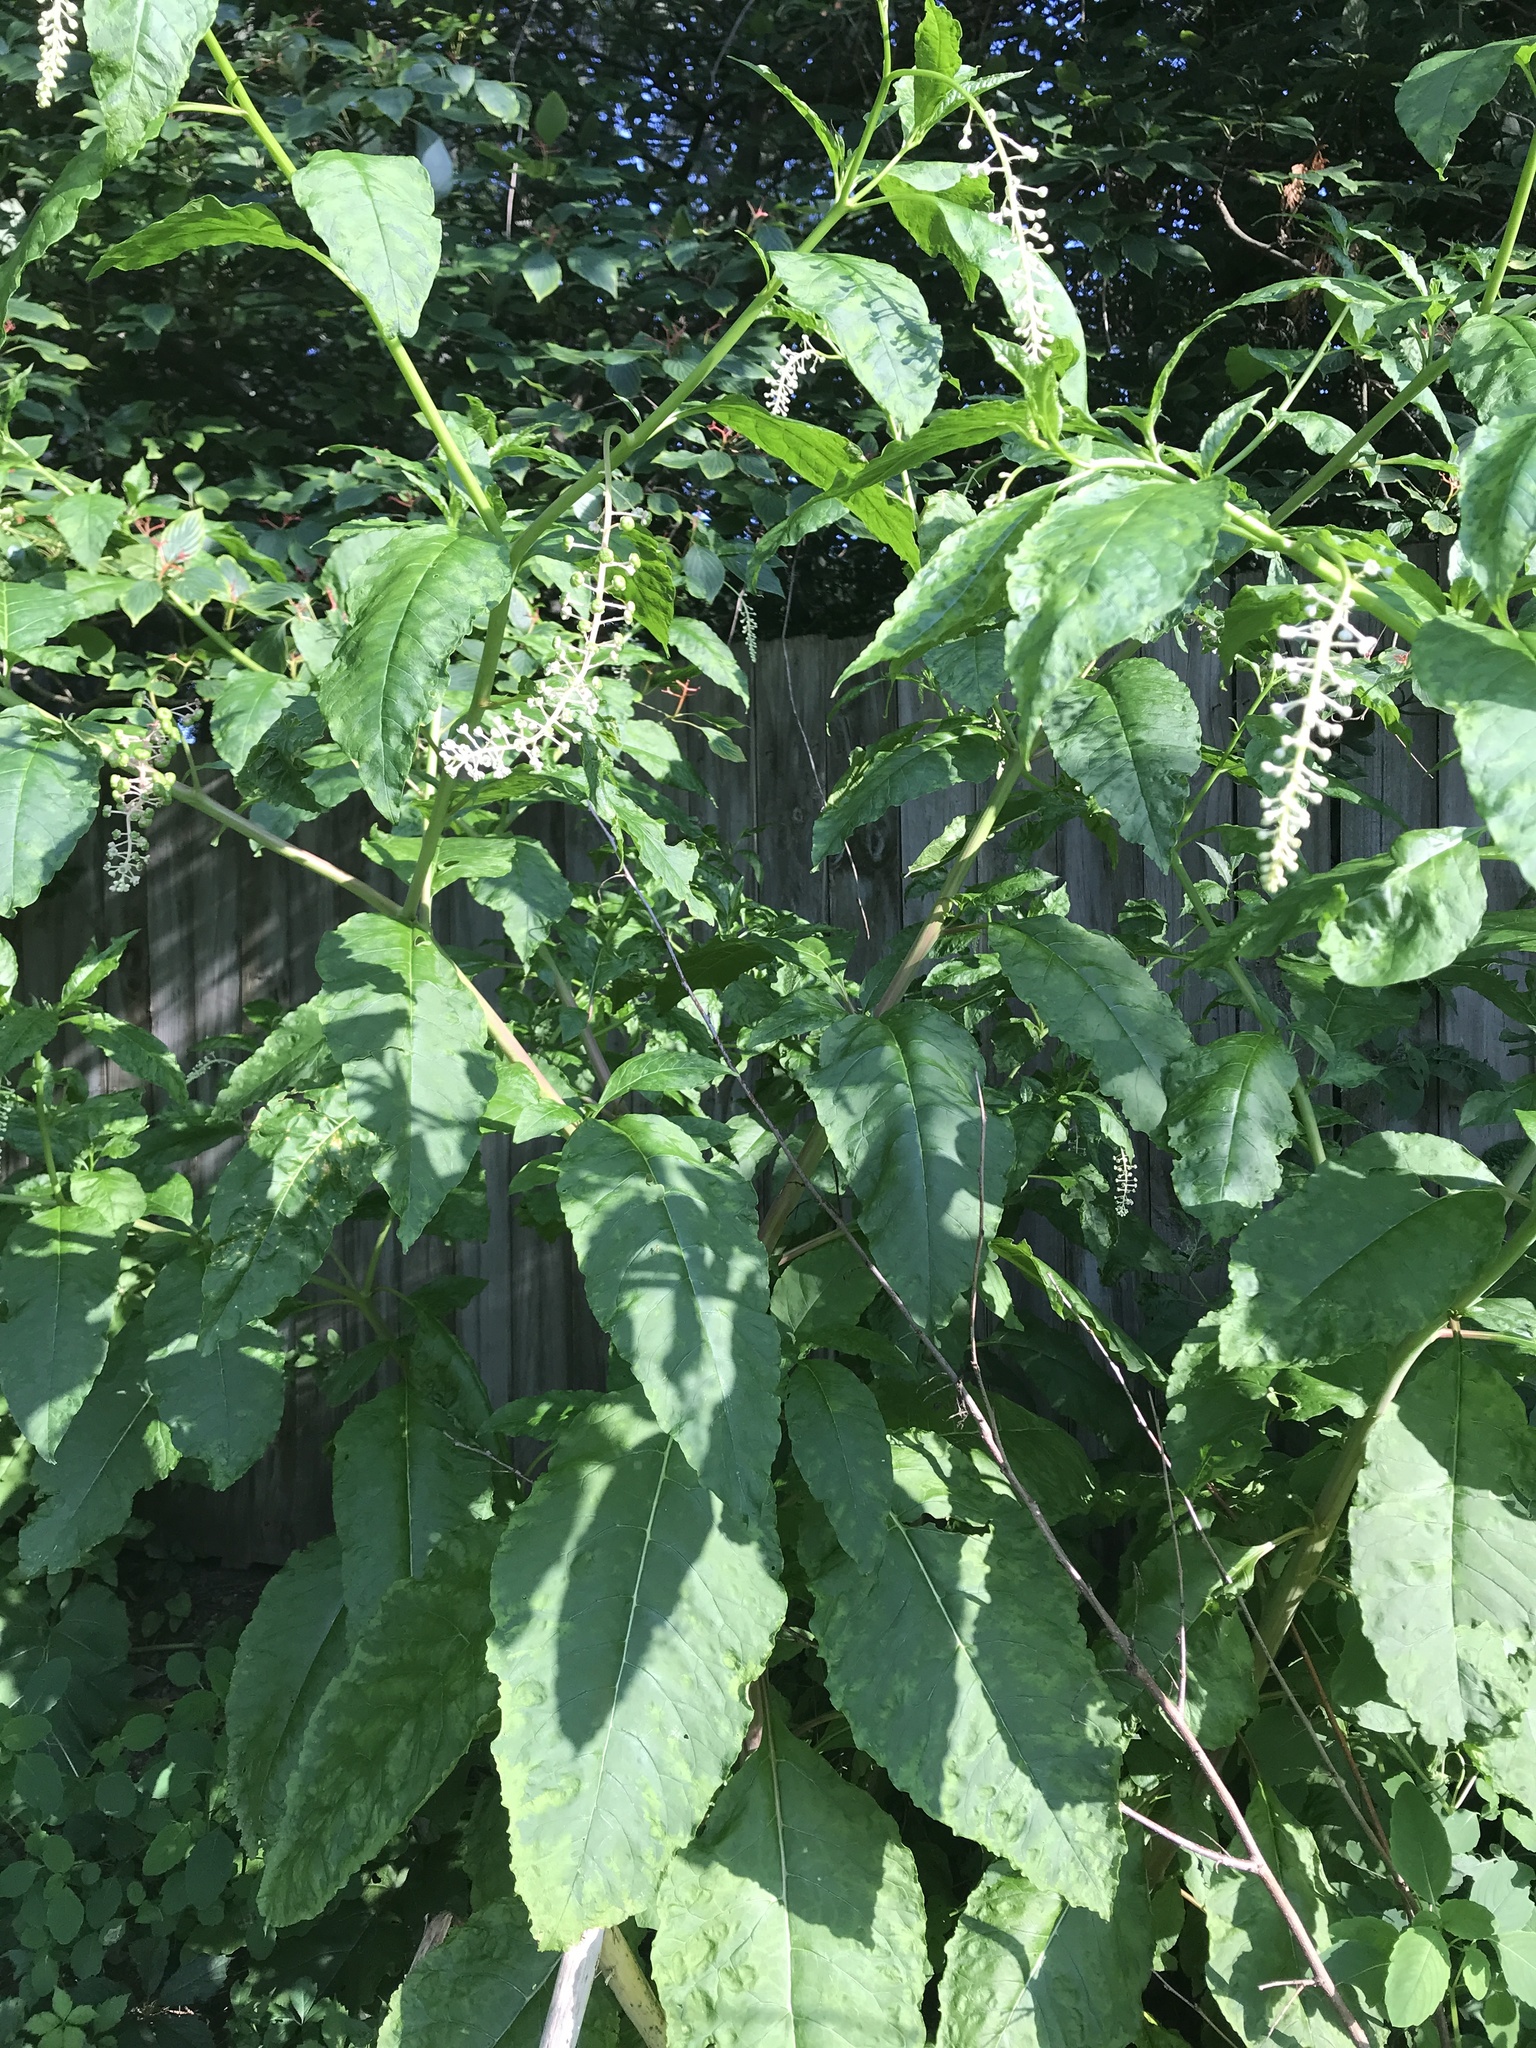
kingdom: Plantae
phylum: Tracheophyta
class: Magnoliopsida
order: Caryophyllales
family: Phytolaccaceae
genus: Phytolacca
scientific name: Phytolacca americana
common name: American pokeweed
